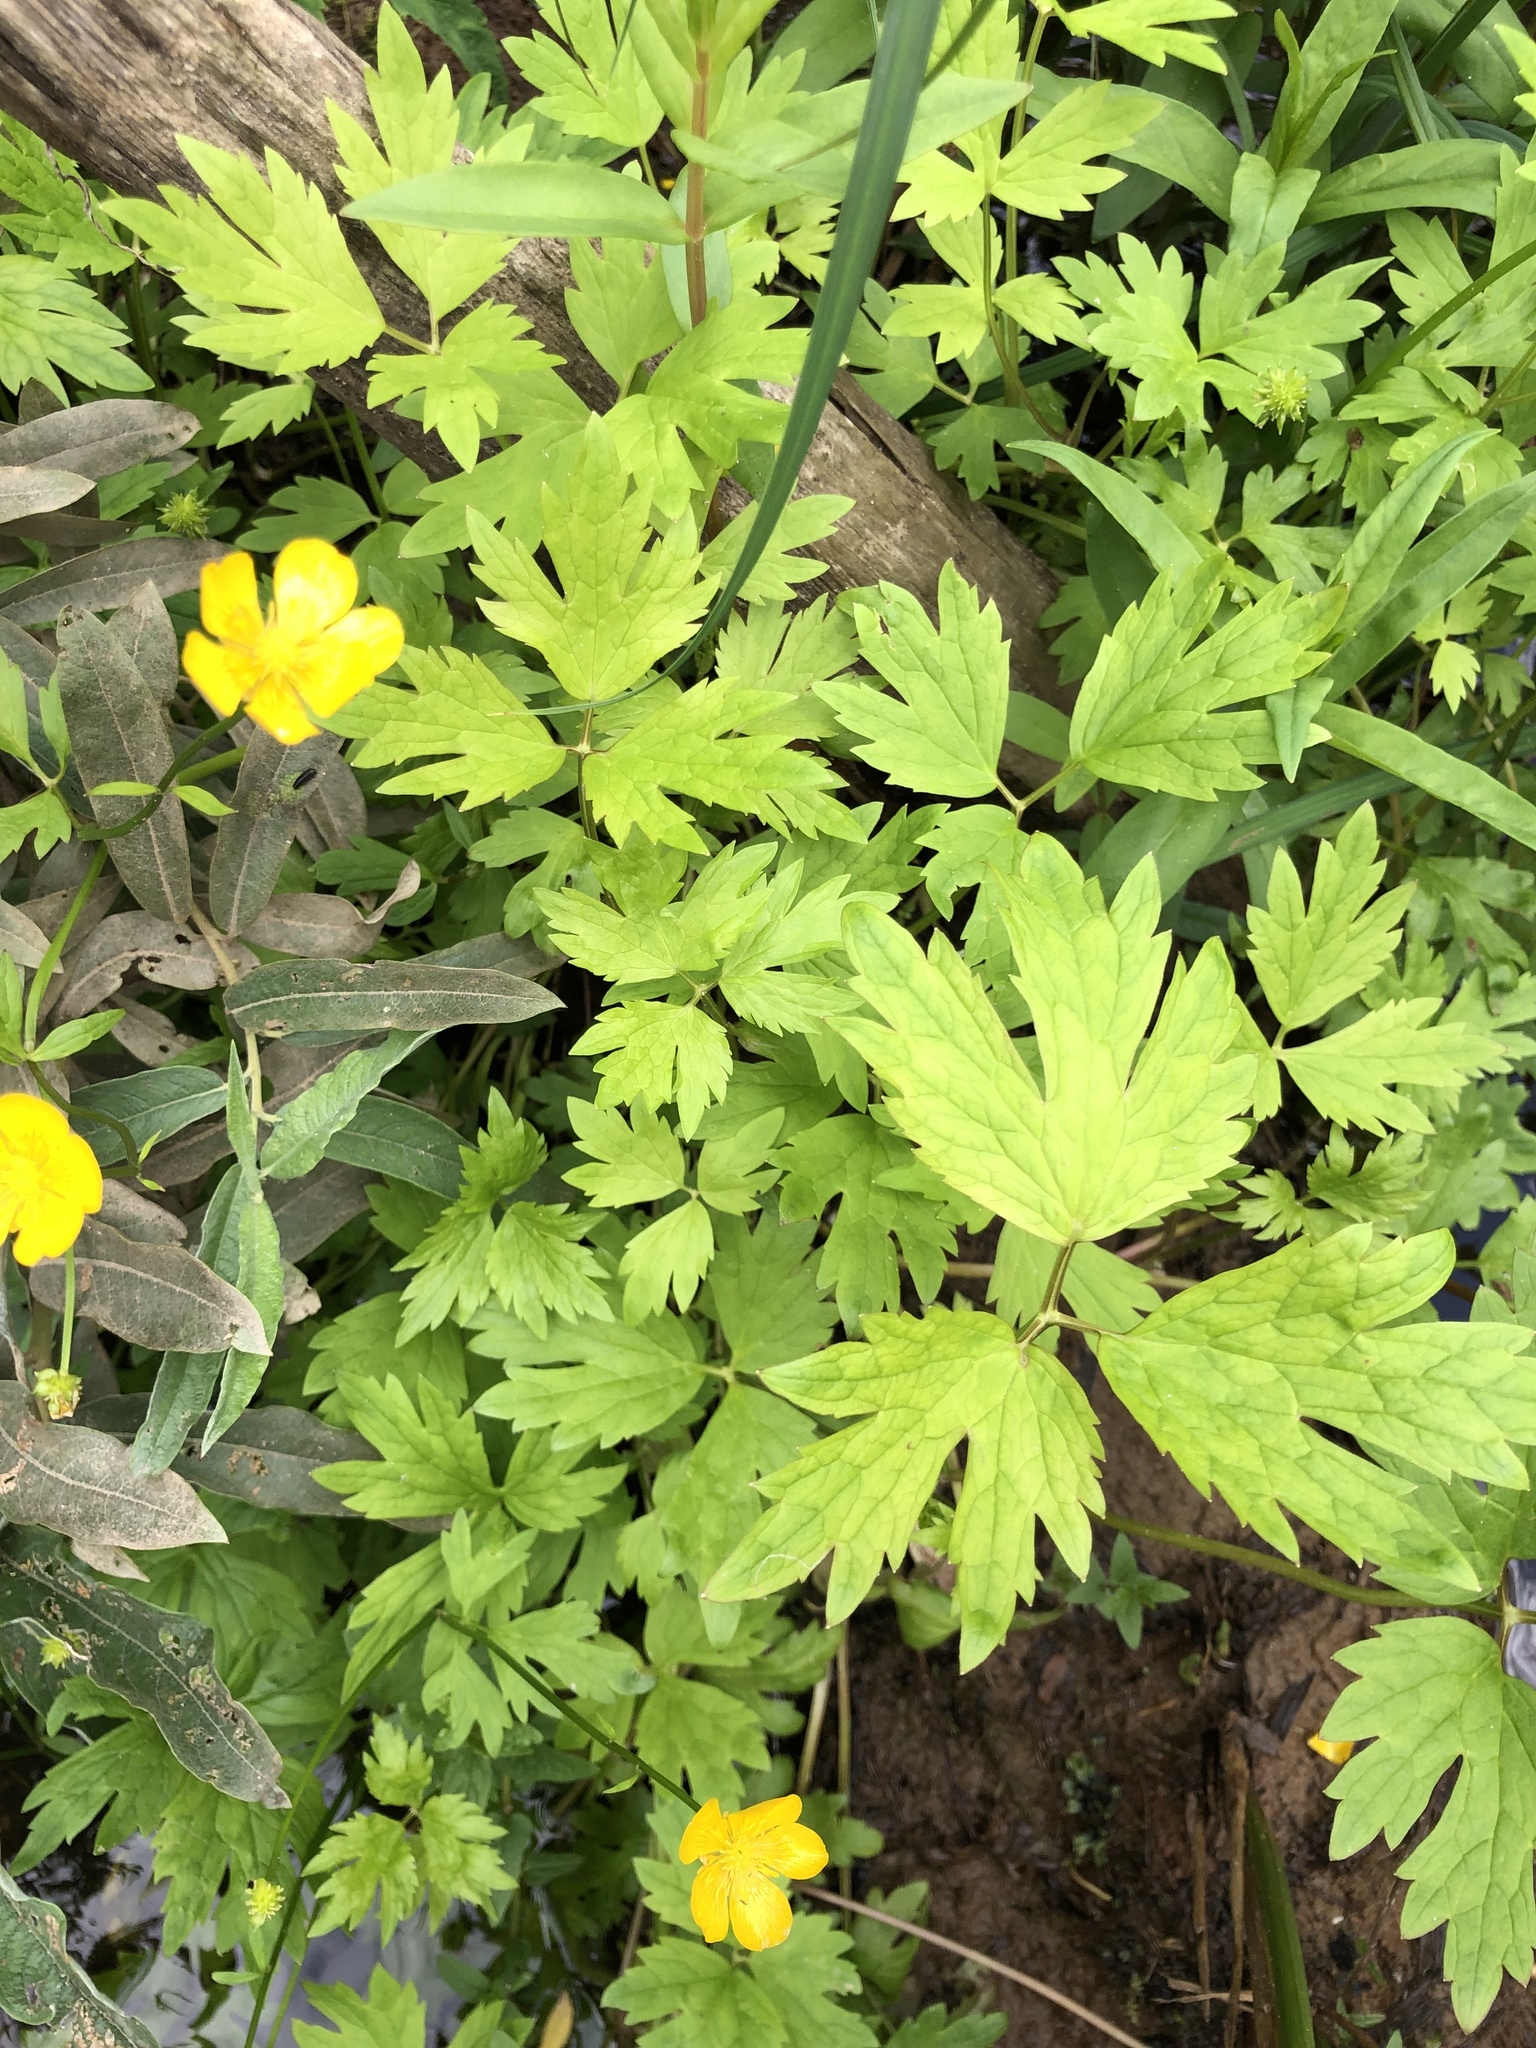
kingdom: Plantae
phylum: Tracheophyta
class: Magnoliopsida
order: Ranunculales
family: Ranunculaceae
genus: Ranunculus
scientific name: Ranunculus repens
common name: Creeping buttercup
